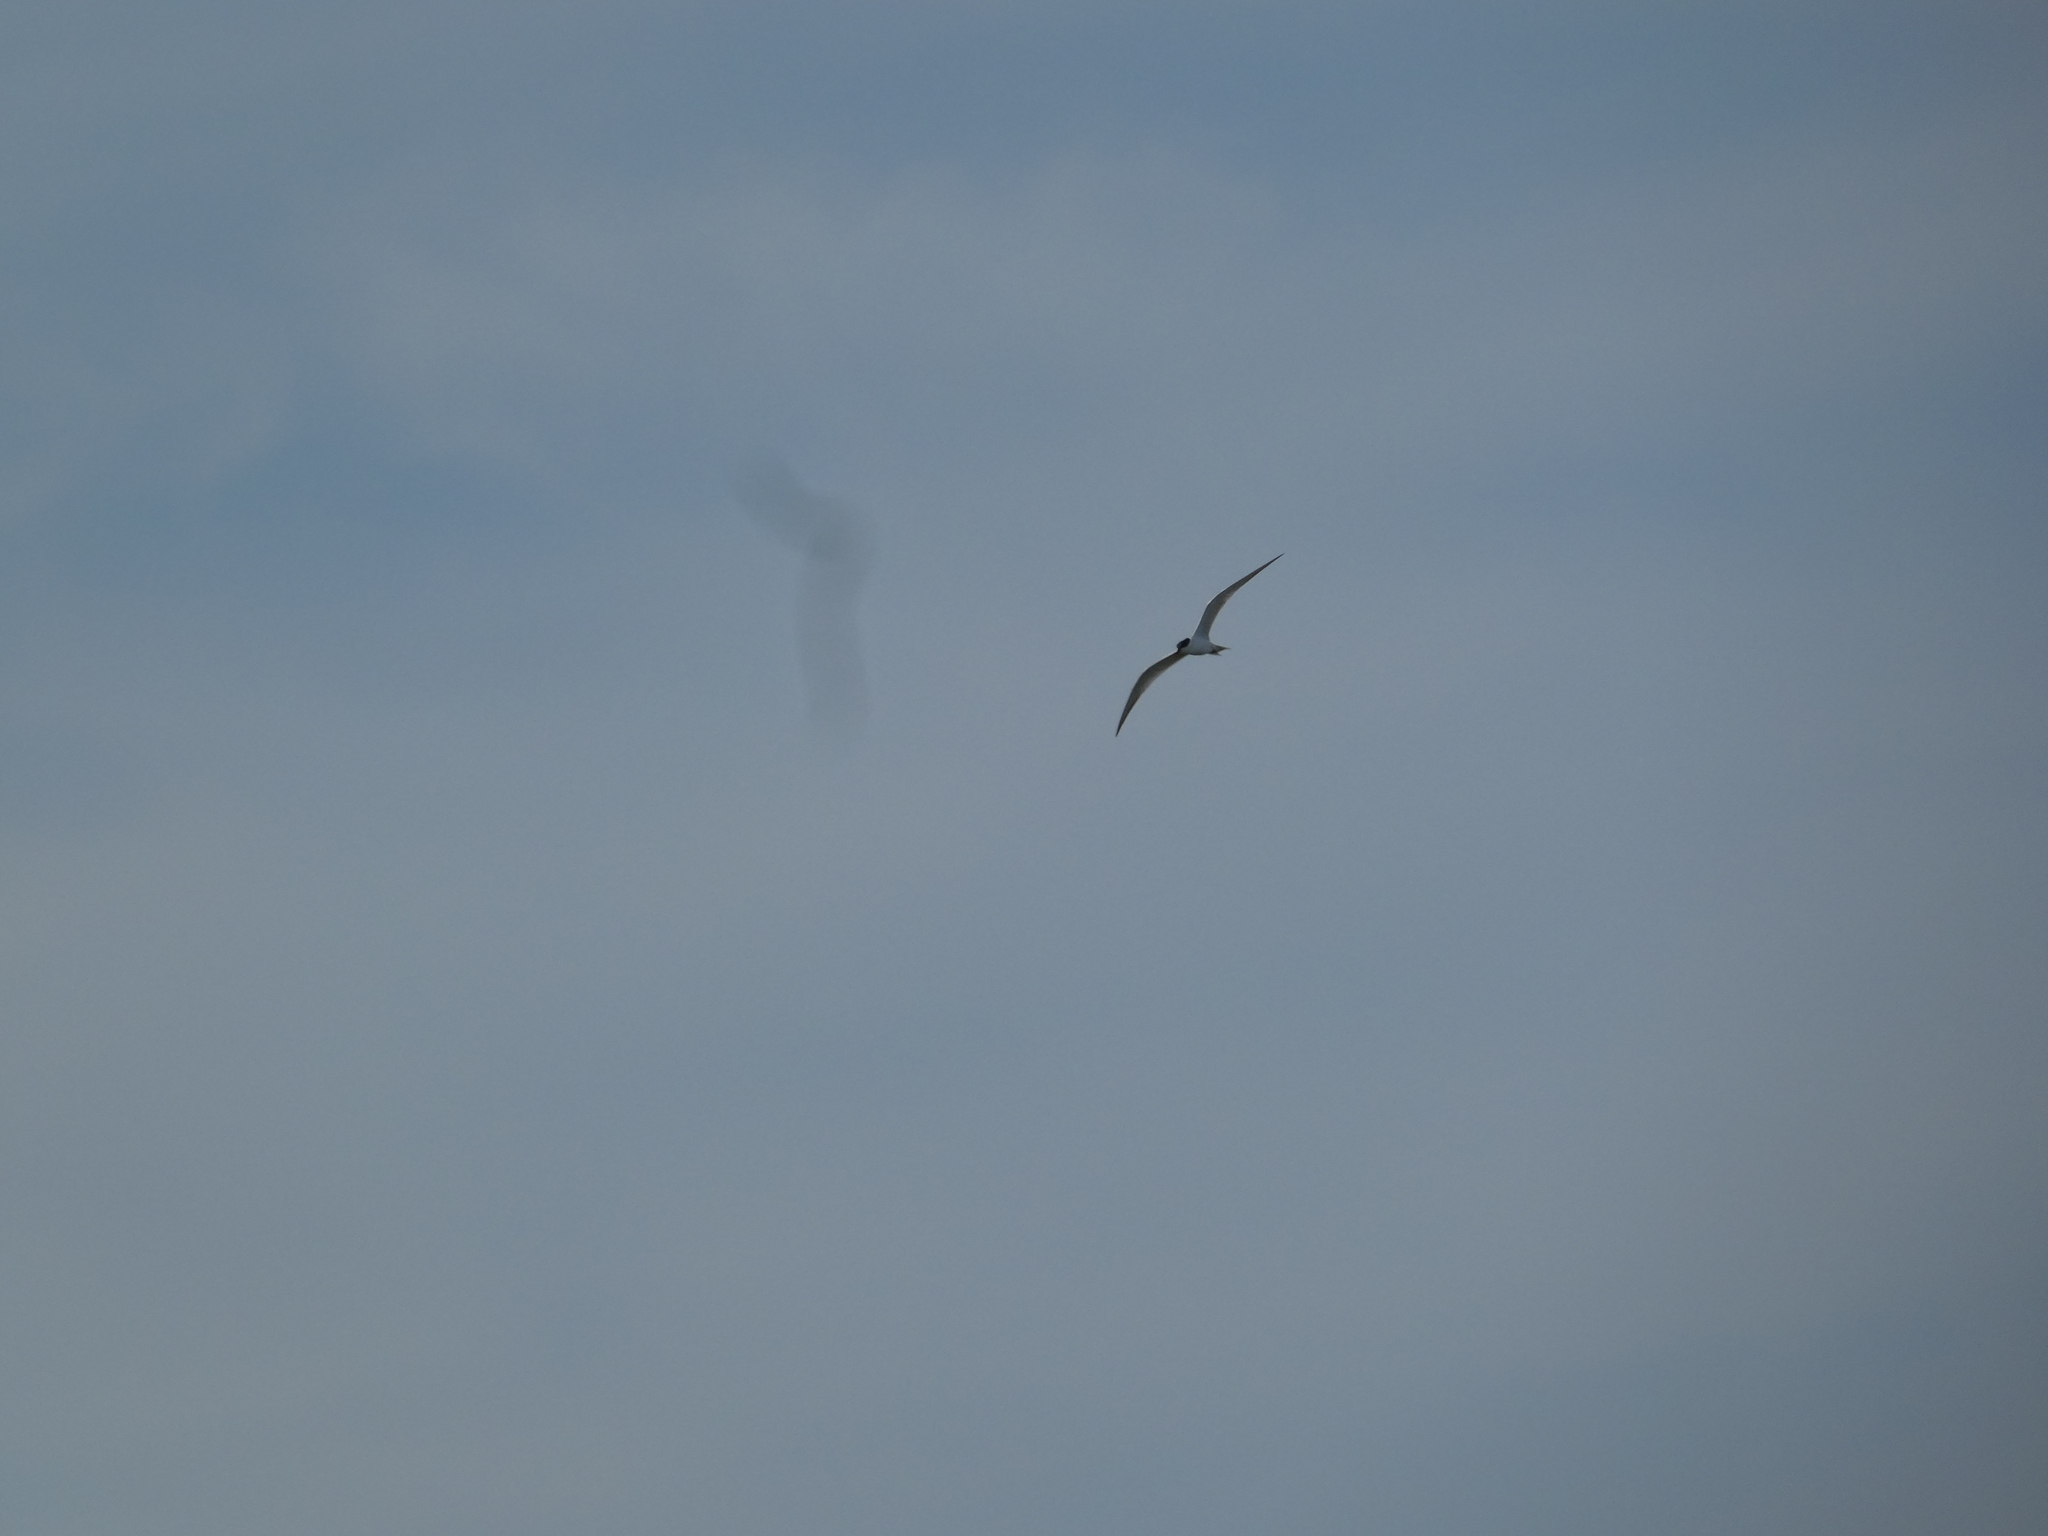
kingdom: Animalia
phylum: Chordata
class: Aves
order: Charadriiformes
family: Laridae
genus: Gelochelidon
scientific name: Gelochelidon nilotica
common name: Gull-billed tern
